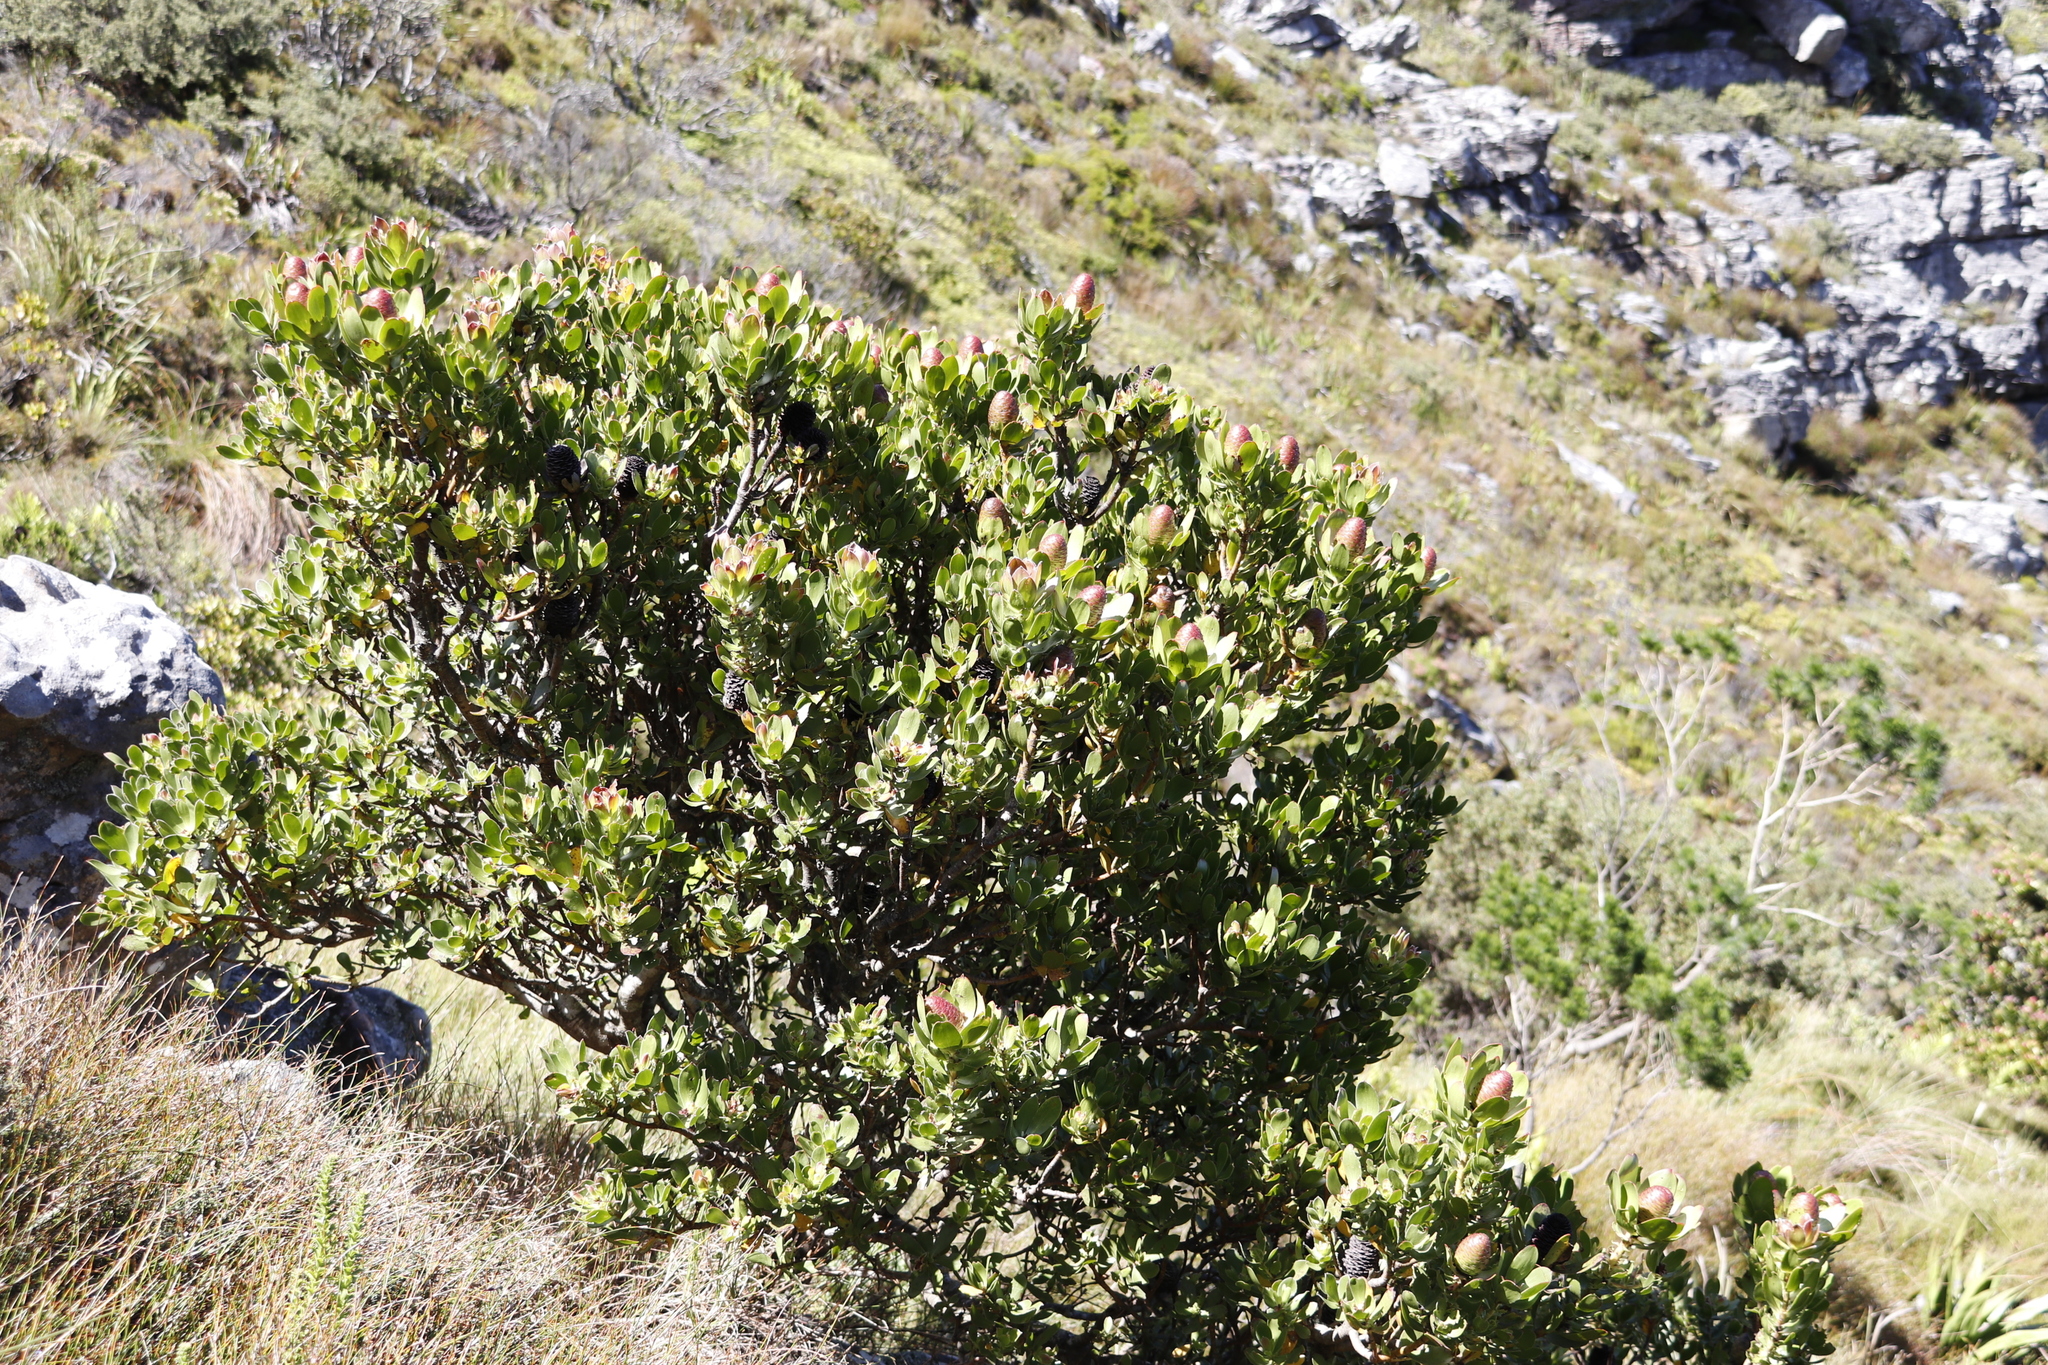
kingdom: Plantae
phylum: Tracheophyta
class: Magnoliopsida
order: Proteales
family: Proteaceae
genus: Leucadendron
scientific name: Leucadendron strobilinum
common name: Mountain rose
